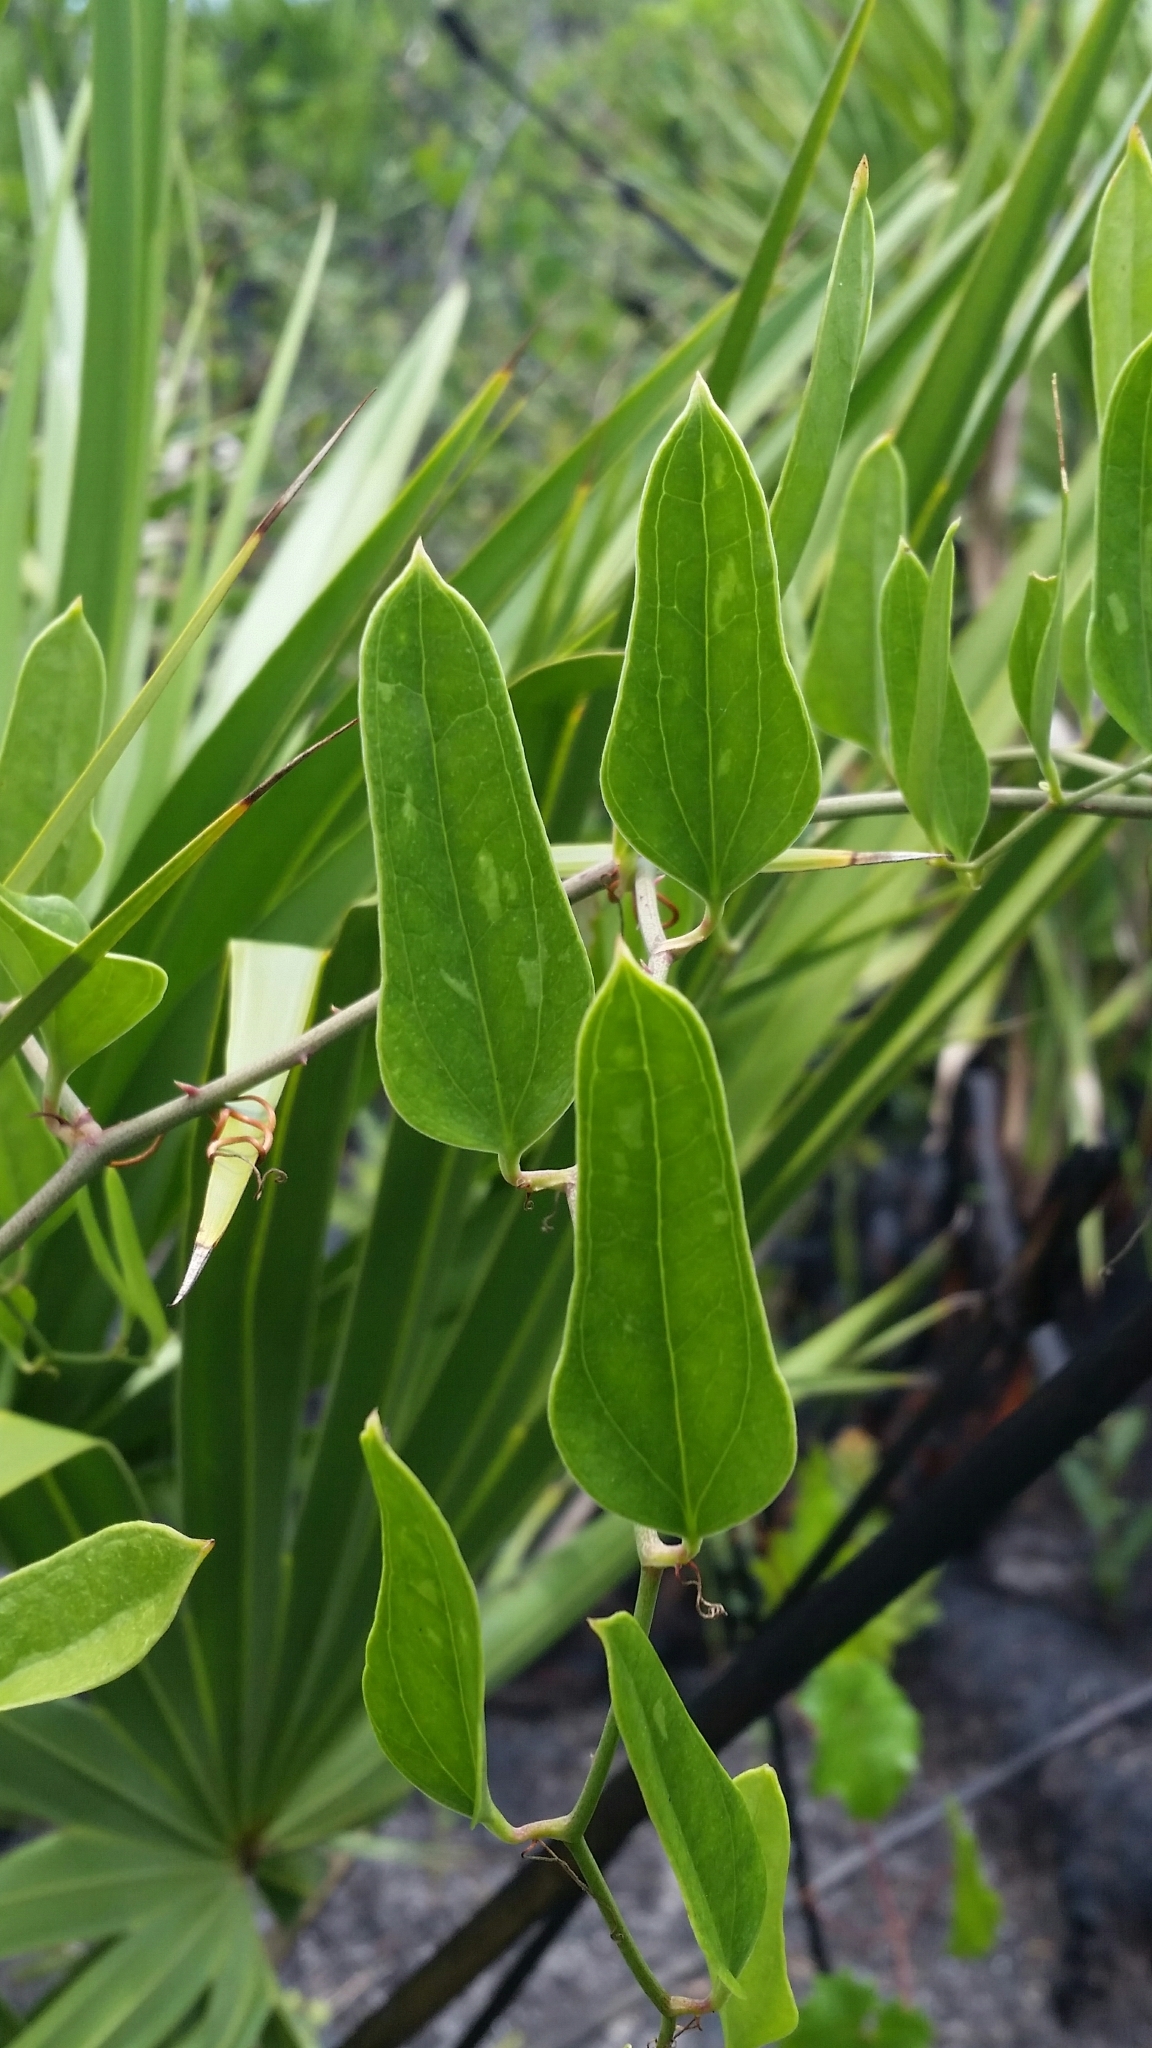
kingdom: Plantae
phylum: Tracheophyta
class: Liliopsida
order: Liliales
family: Smilacaceae
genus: Smilax
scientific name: Smilax auriculata
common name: Wild bamboo
